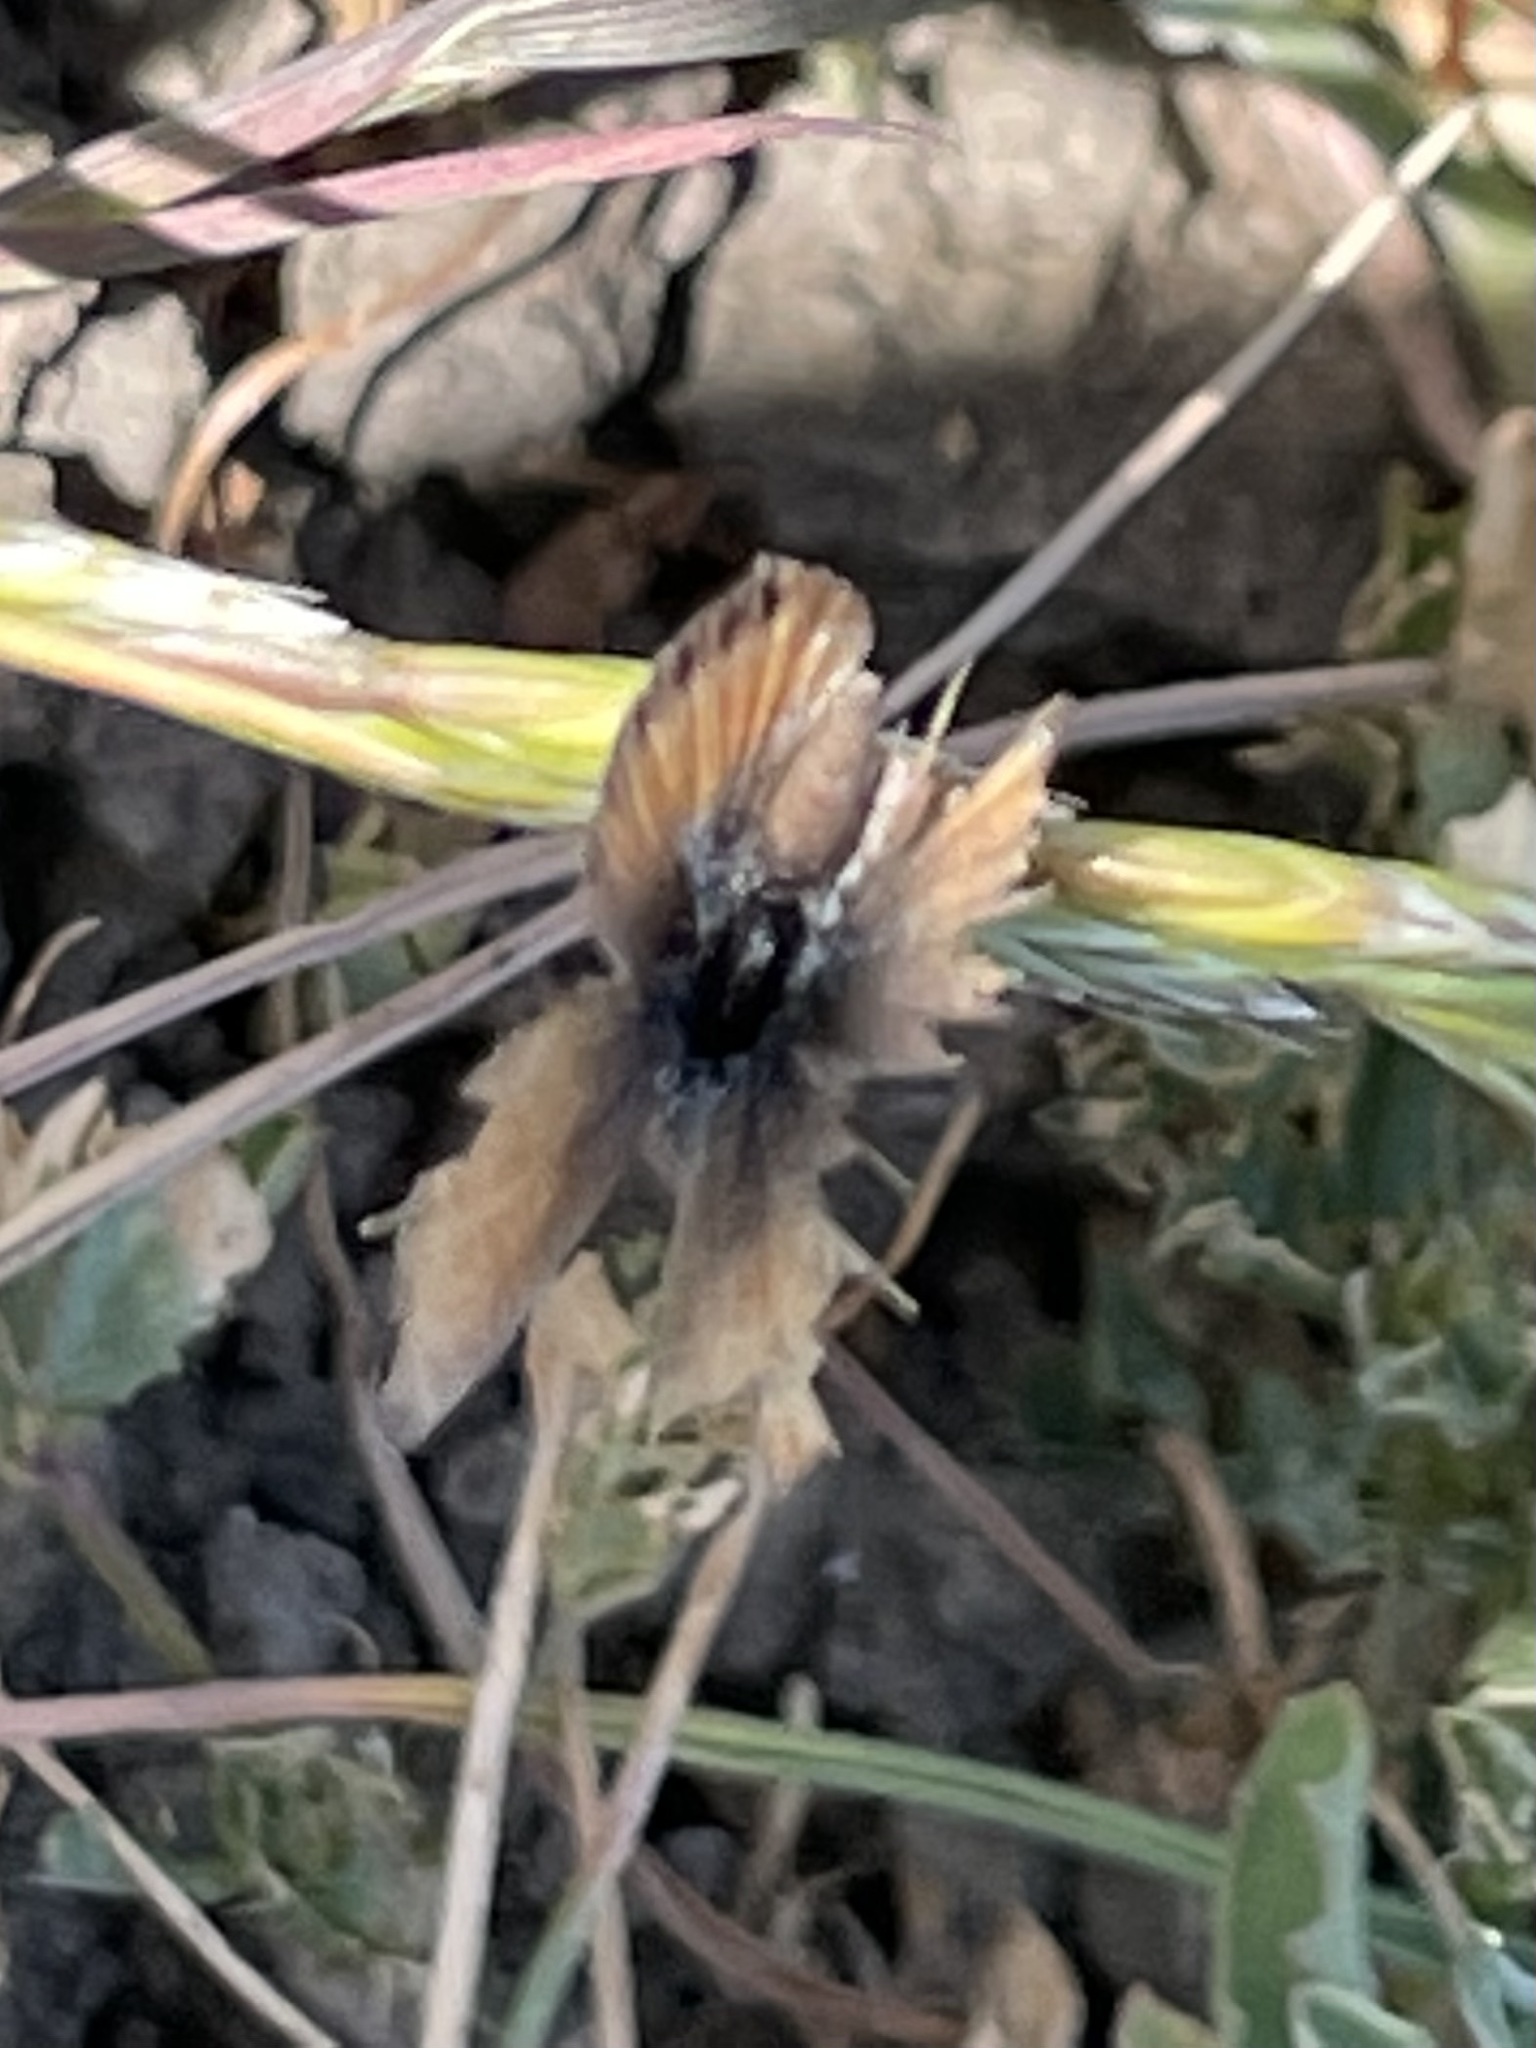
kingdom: Animalia
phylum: Arthropoda
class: Insecta
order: Lepidoptera
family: Lycaenidae
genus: Brephidium
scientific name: Brephidium exilis
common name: Pygmy blue
